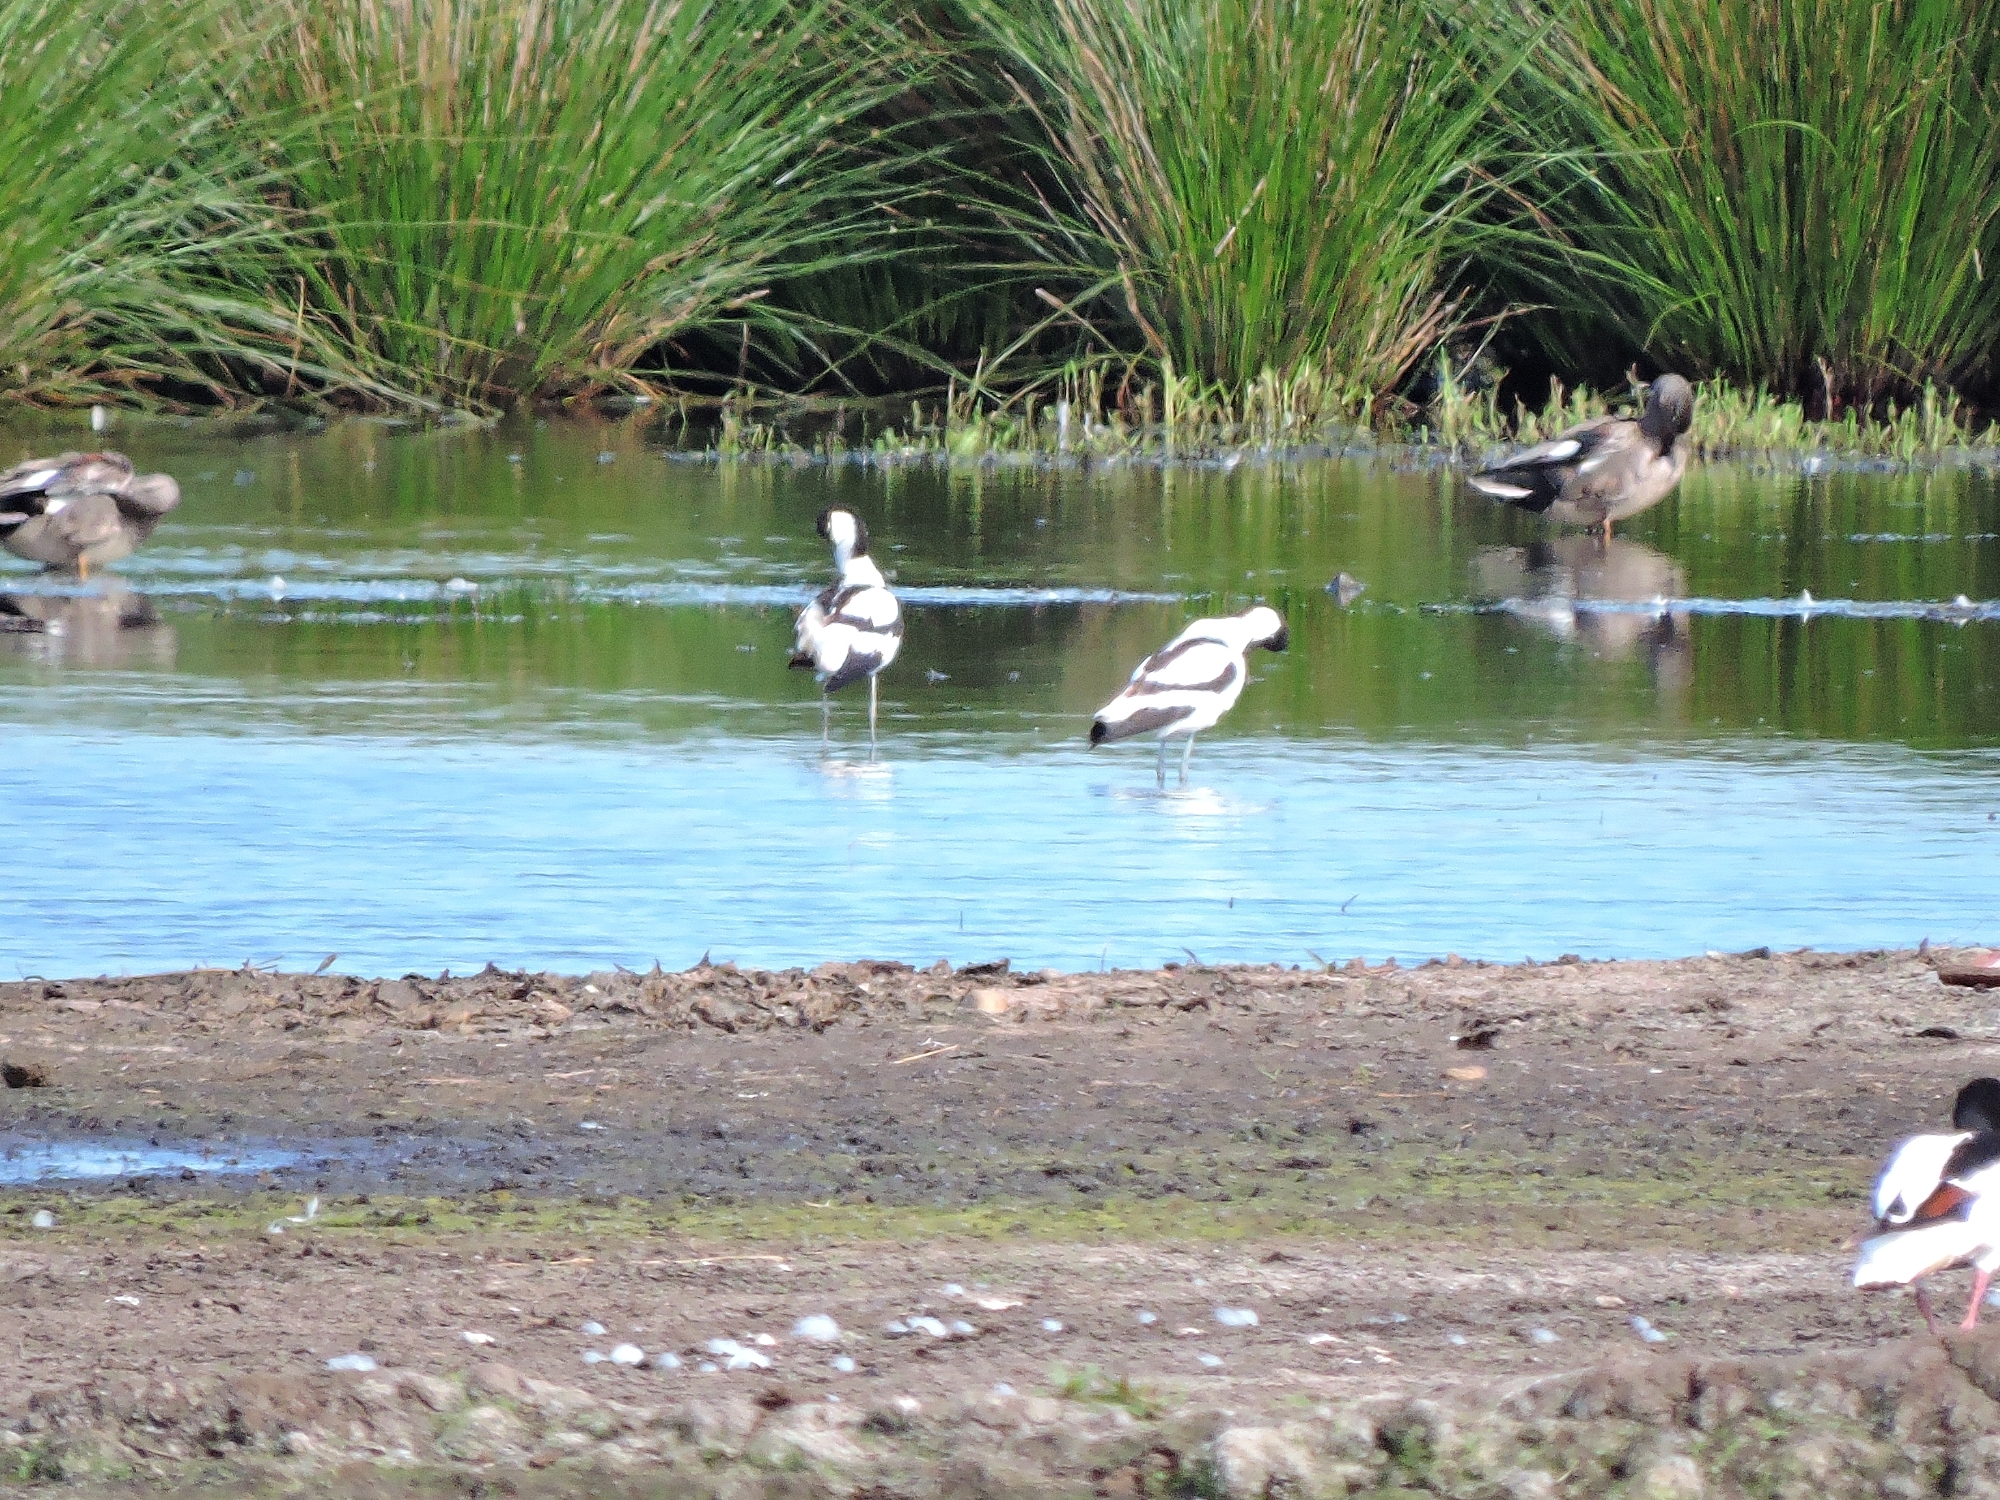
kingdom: Animalia
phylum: Chordata
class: Aves
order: Charadriiformes
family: Recurvirostridae
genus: Recurvirostra
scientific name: Recurvirostra avosetta
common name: Pied avocet
